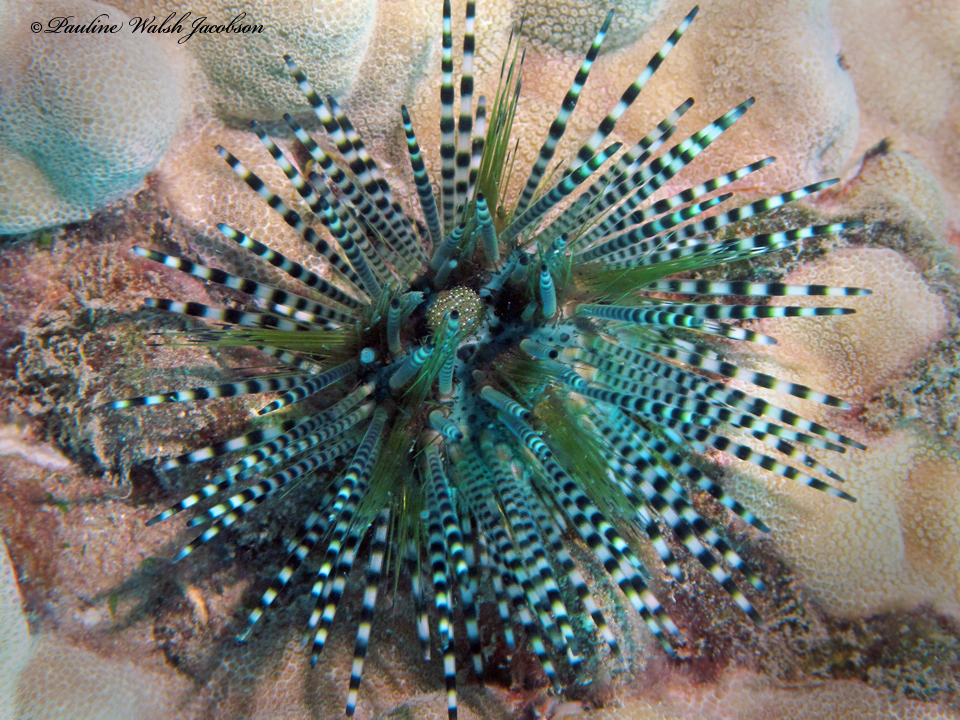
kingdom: Animalia
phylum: Echinodermata
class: Echinoidea
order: Diadematoida
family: Diadematidae
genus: Echinothrix
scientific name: Echinothrix calamaris
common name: Banded sea urchin
